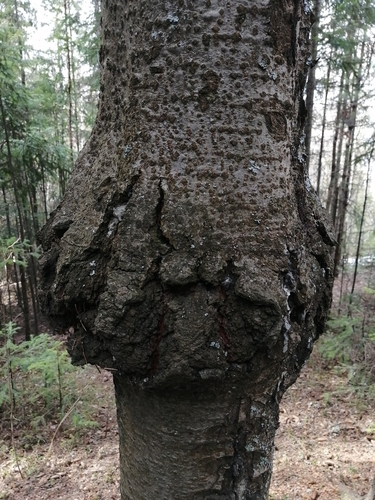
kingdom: Fungi
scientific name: Fungi
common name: Fungi
